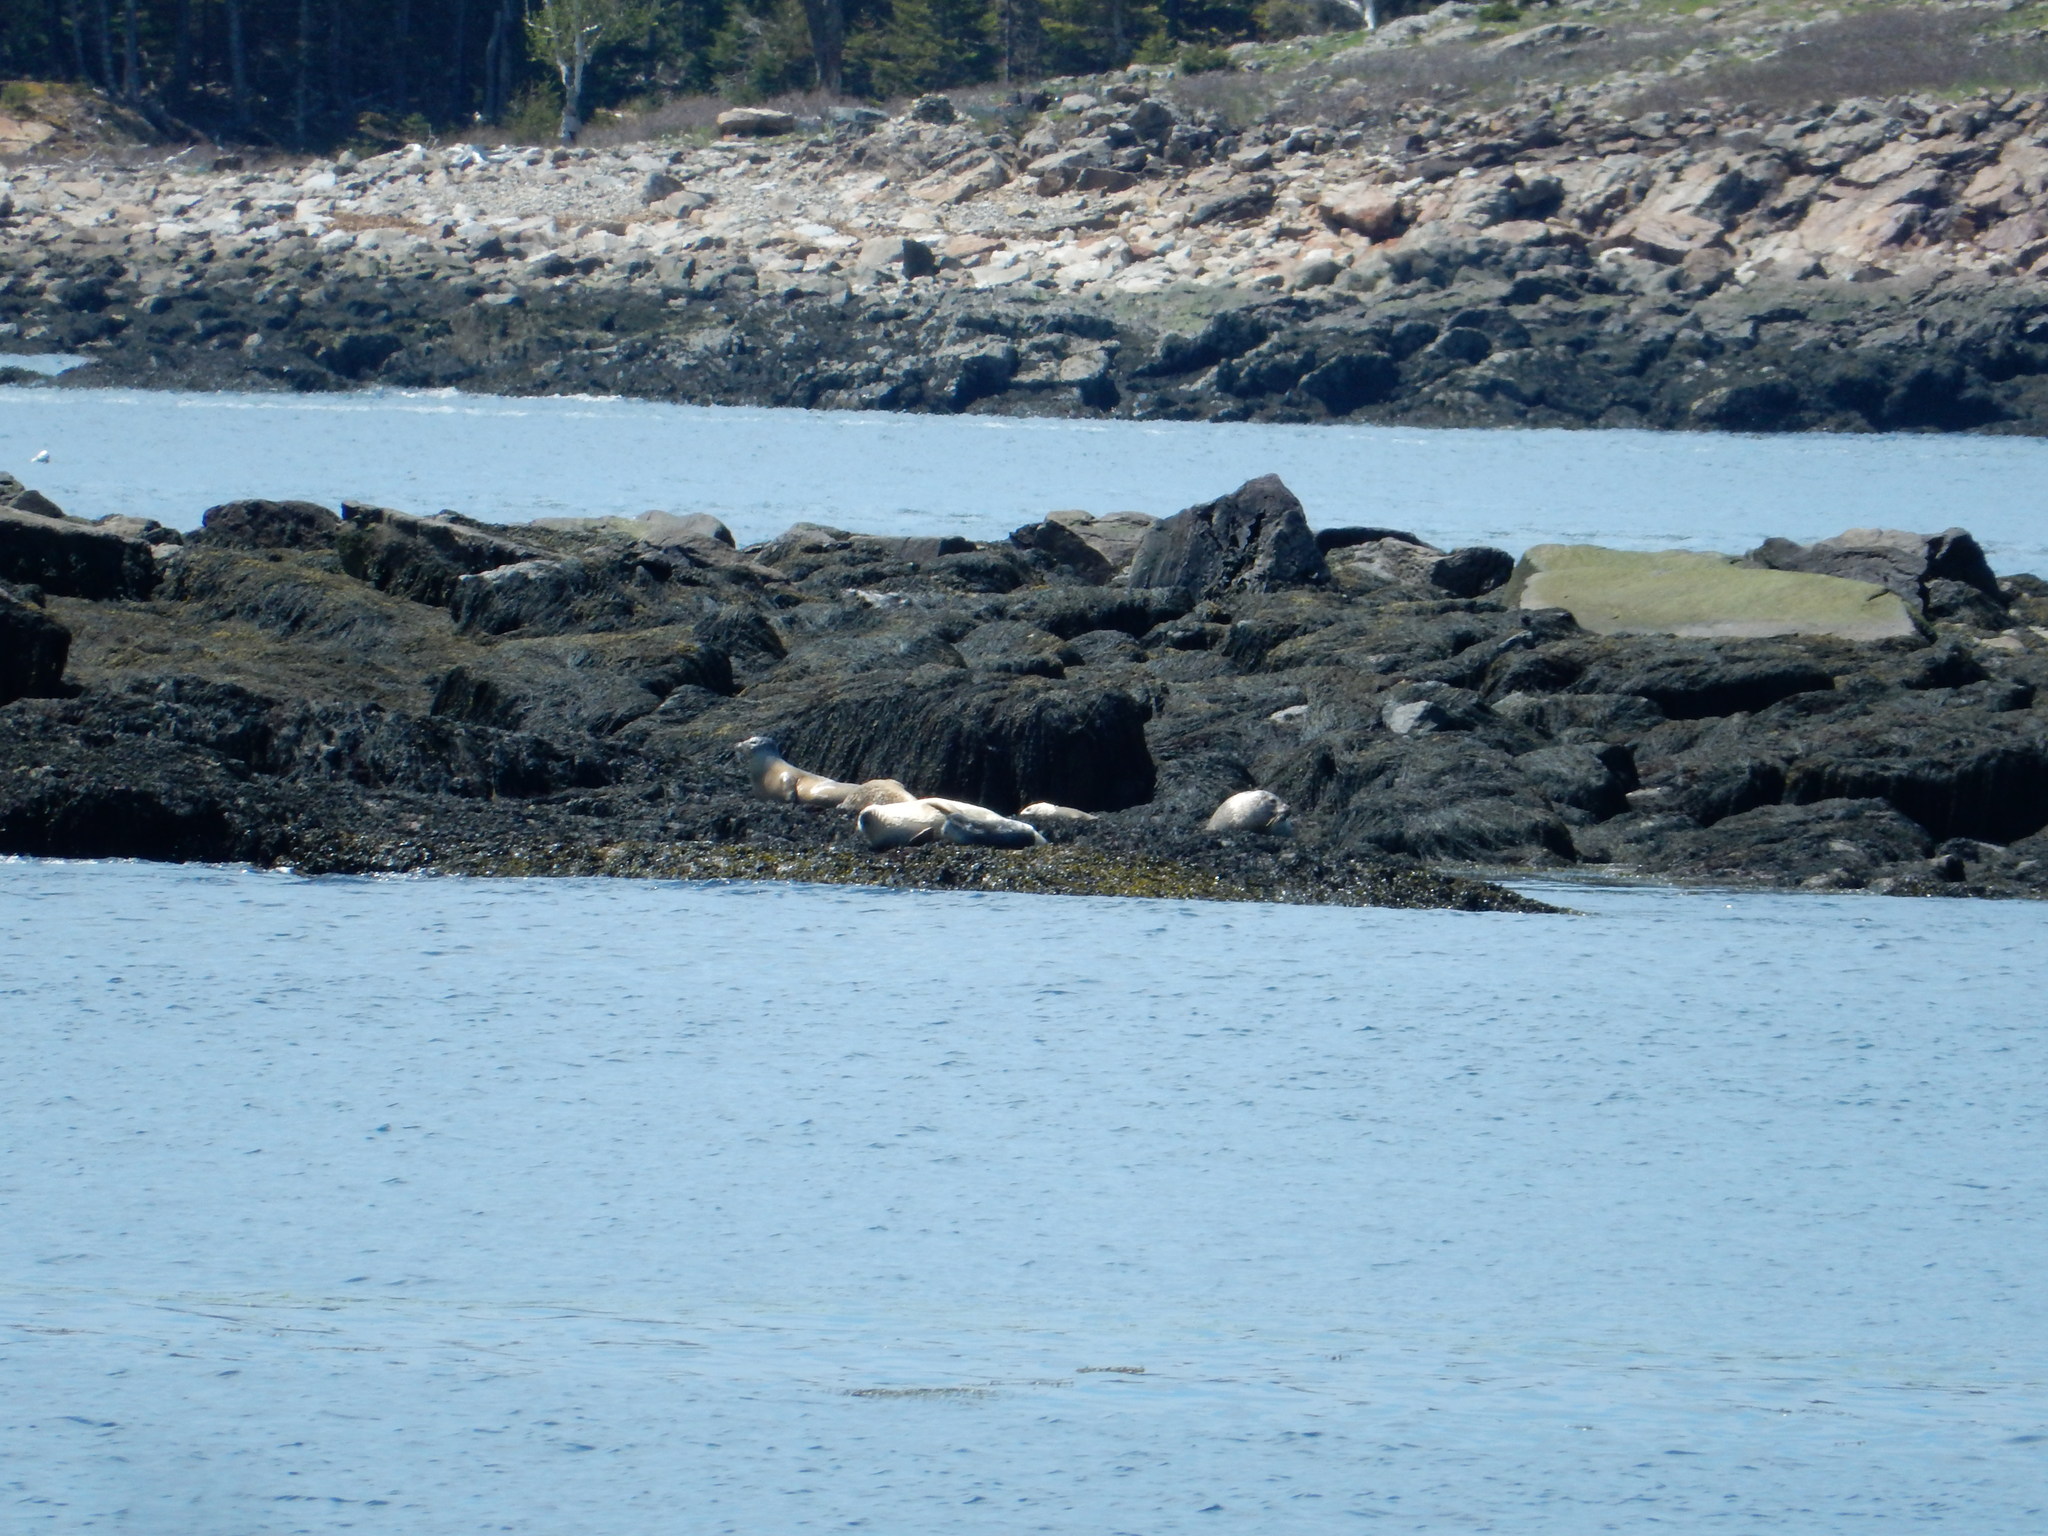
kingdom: Animalia
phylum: Chordata
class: Mammalia
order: Carnivora
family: Phocidae
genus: Phoca
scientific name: Phoca vitulina
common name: Harbor seal
